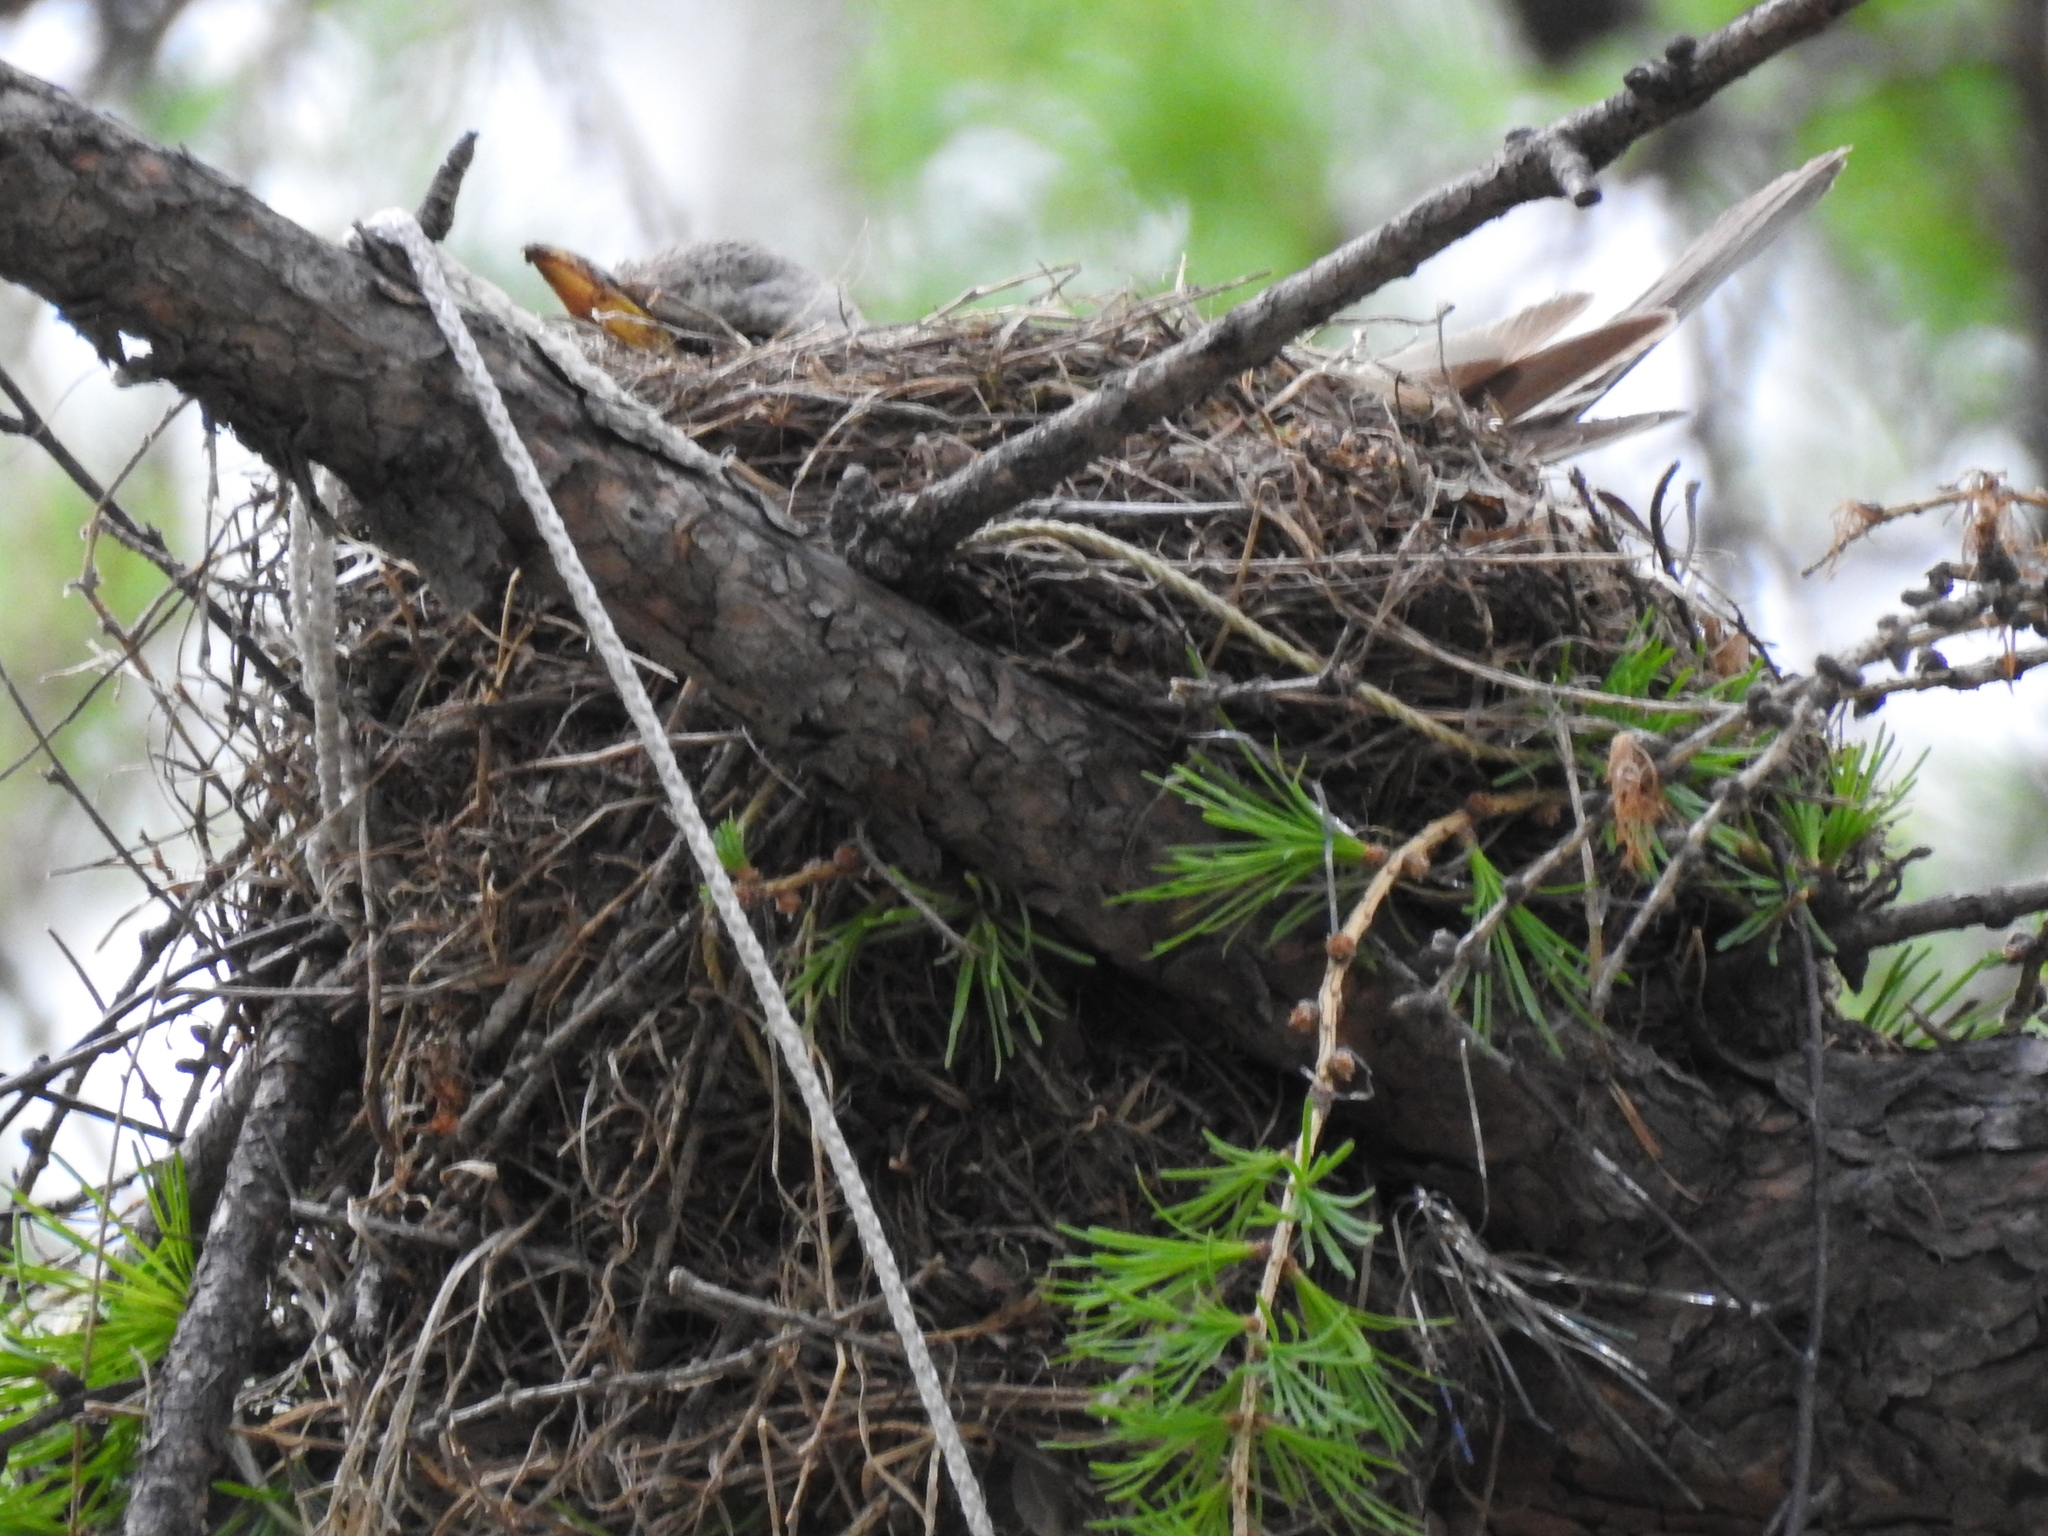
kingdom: Animalia
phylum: Chordata
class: Aves
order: Passeriformes
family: Turdidae
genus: Turdus
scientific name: Turdus pilaris
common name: Fieldfare
